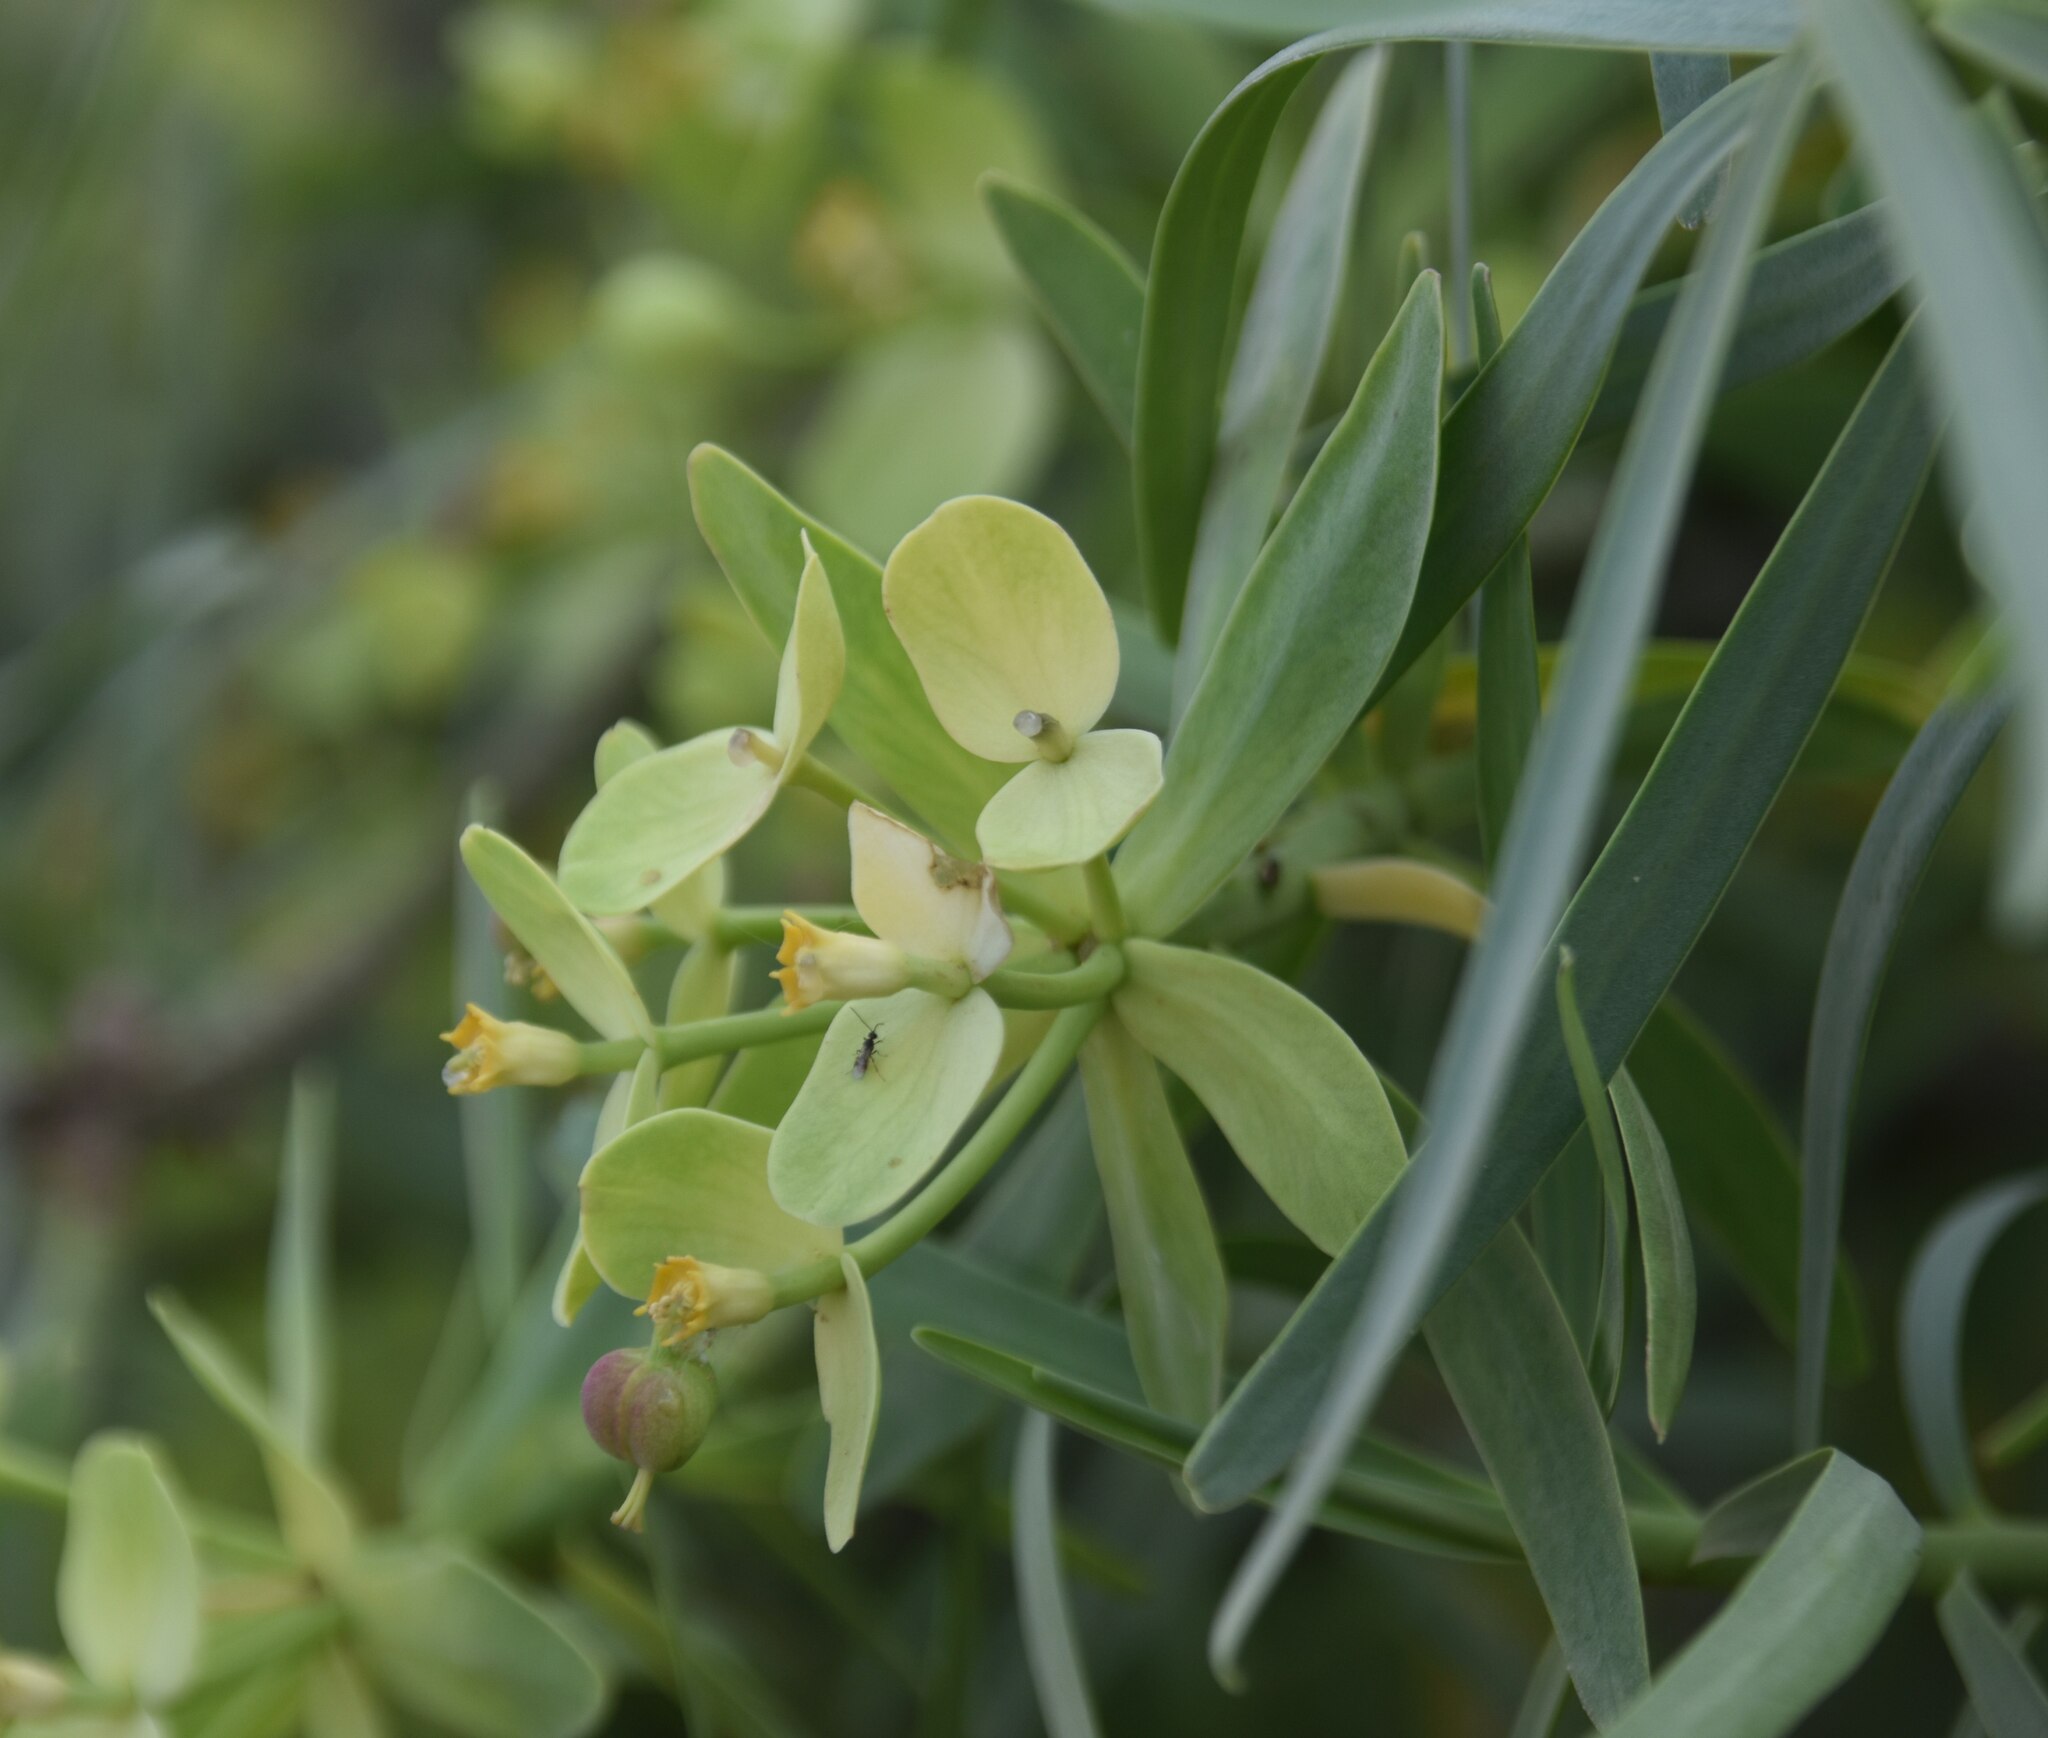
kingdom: Plantae
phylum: Tracheophyta
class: Magnoliopsida
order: Malpighiales
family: Euphorbiaceae
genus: Euphorbia
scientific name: Euphorbia regis-jubae
